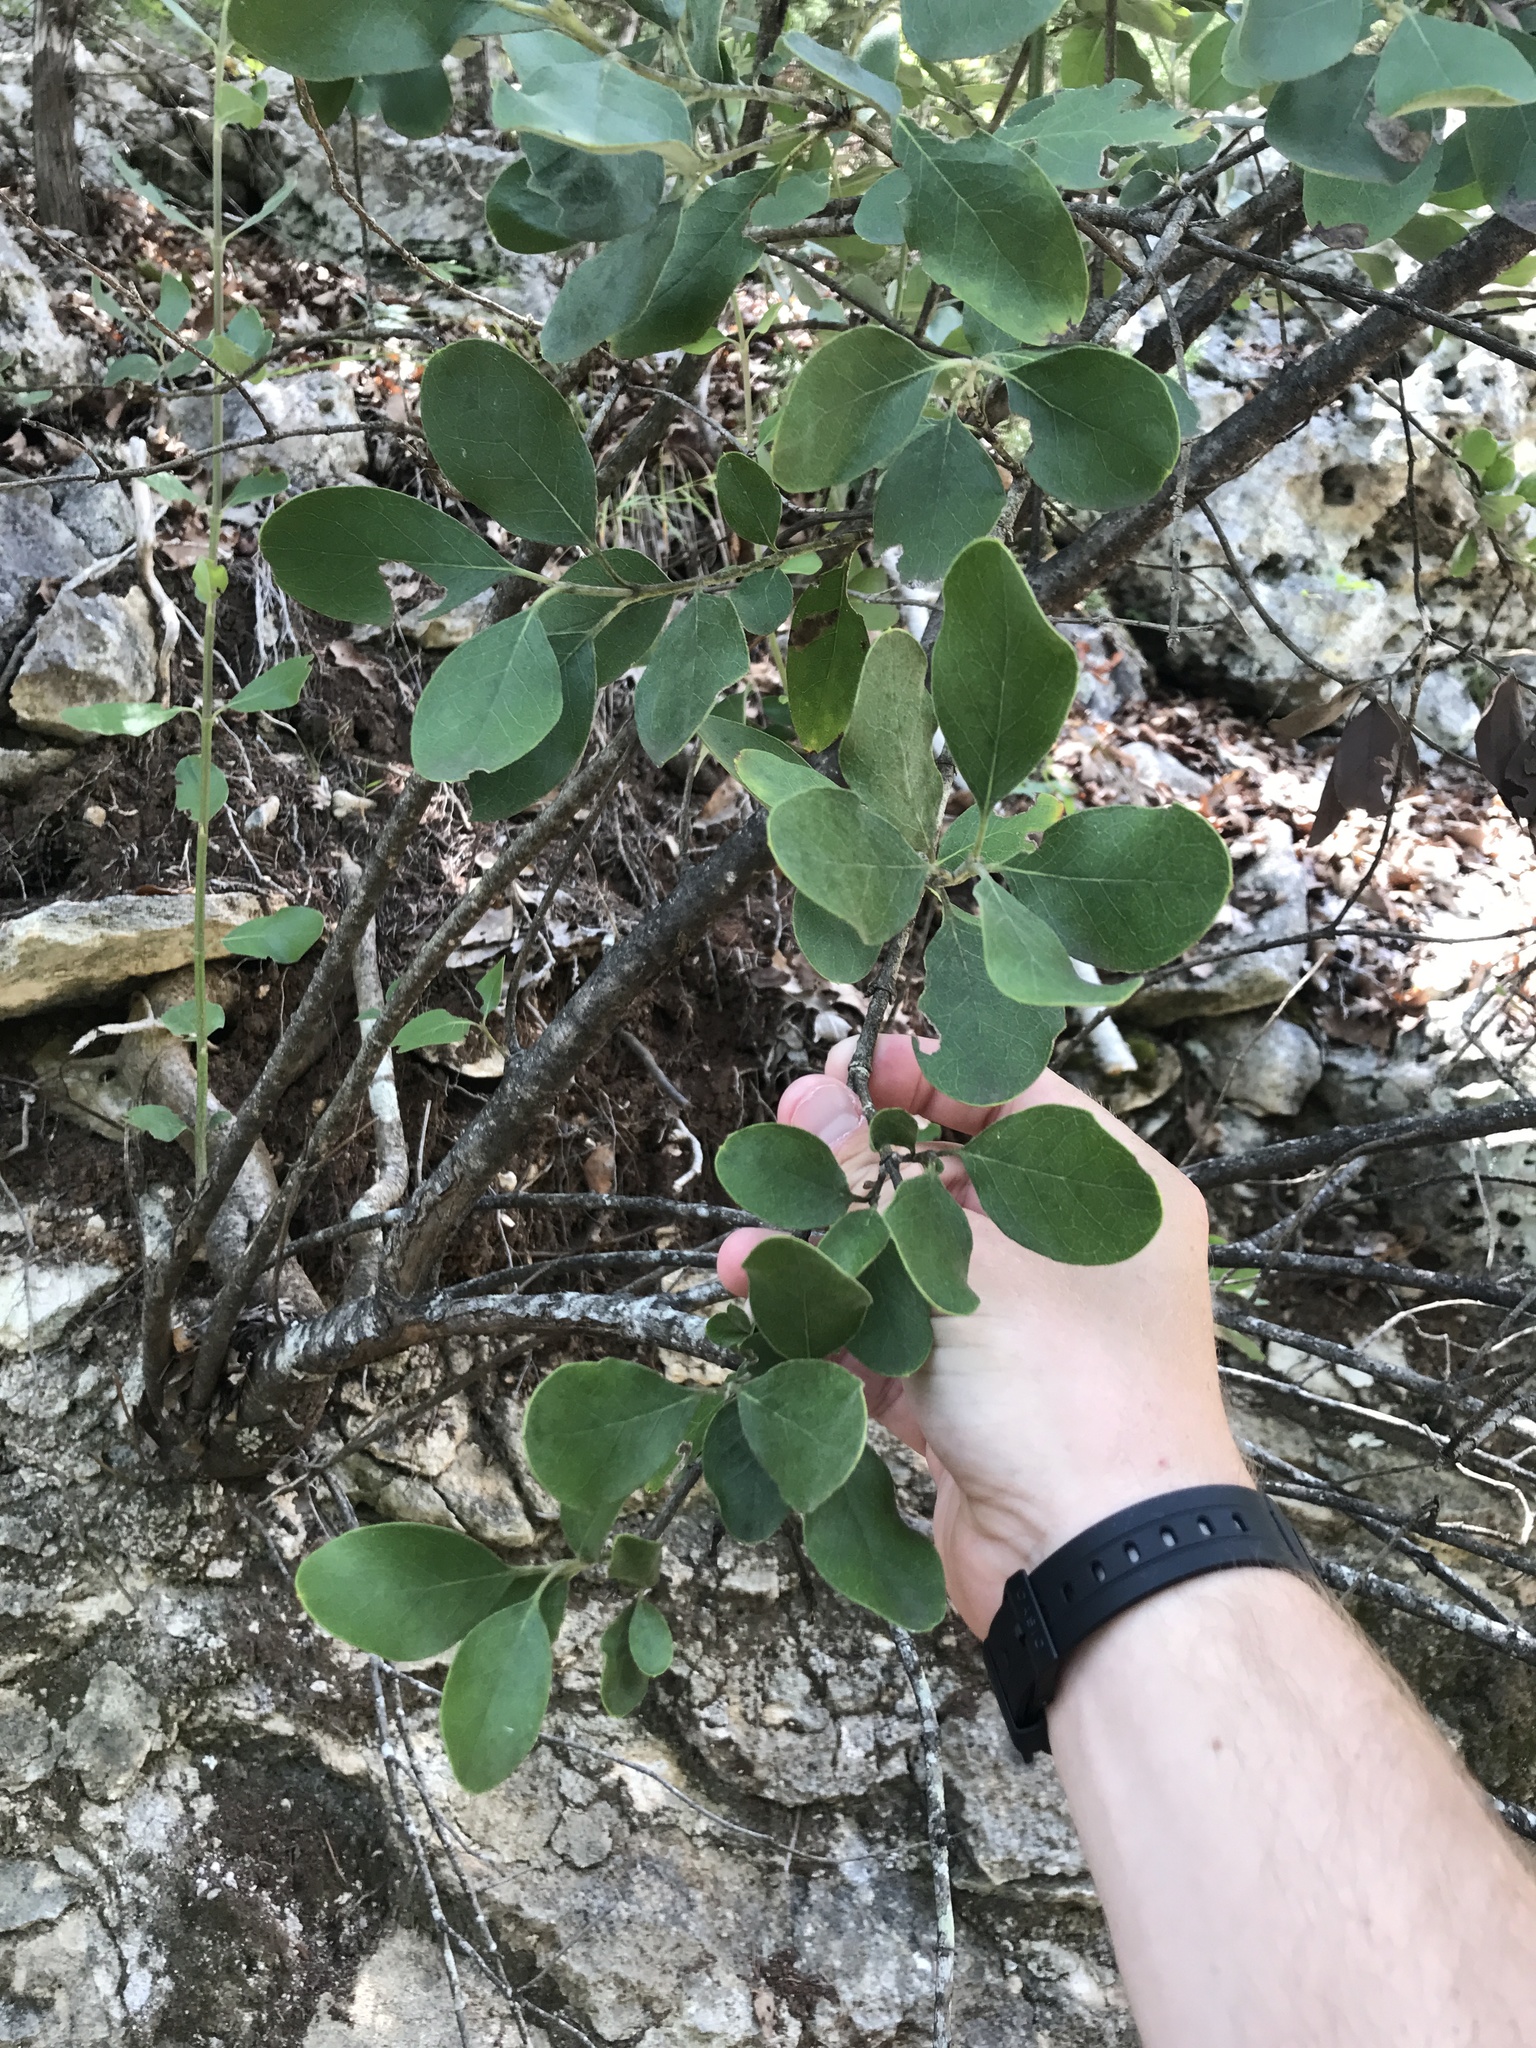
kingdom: Plantae
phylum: Tracheophyta
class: Magnoliopsida
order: Garryales
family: Garryaceae
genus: Garrya
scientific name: Garrya lindheimeri
